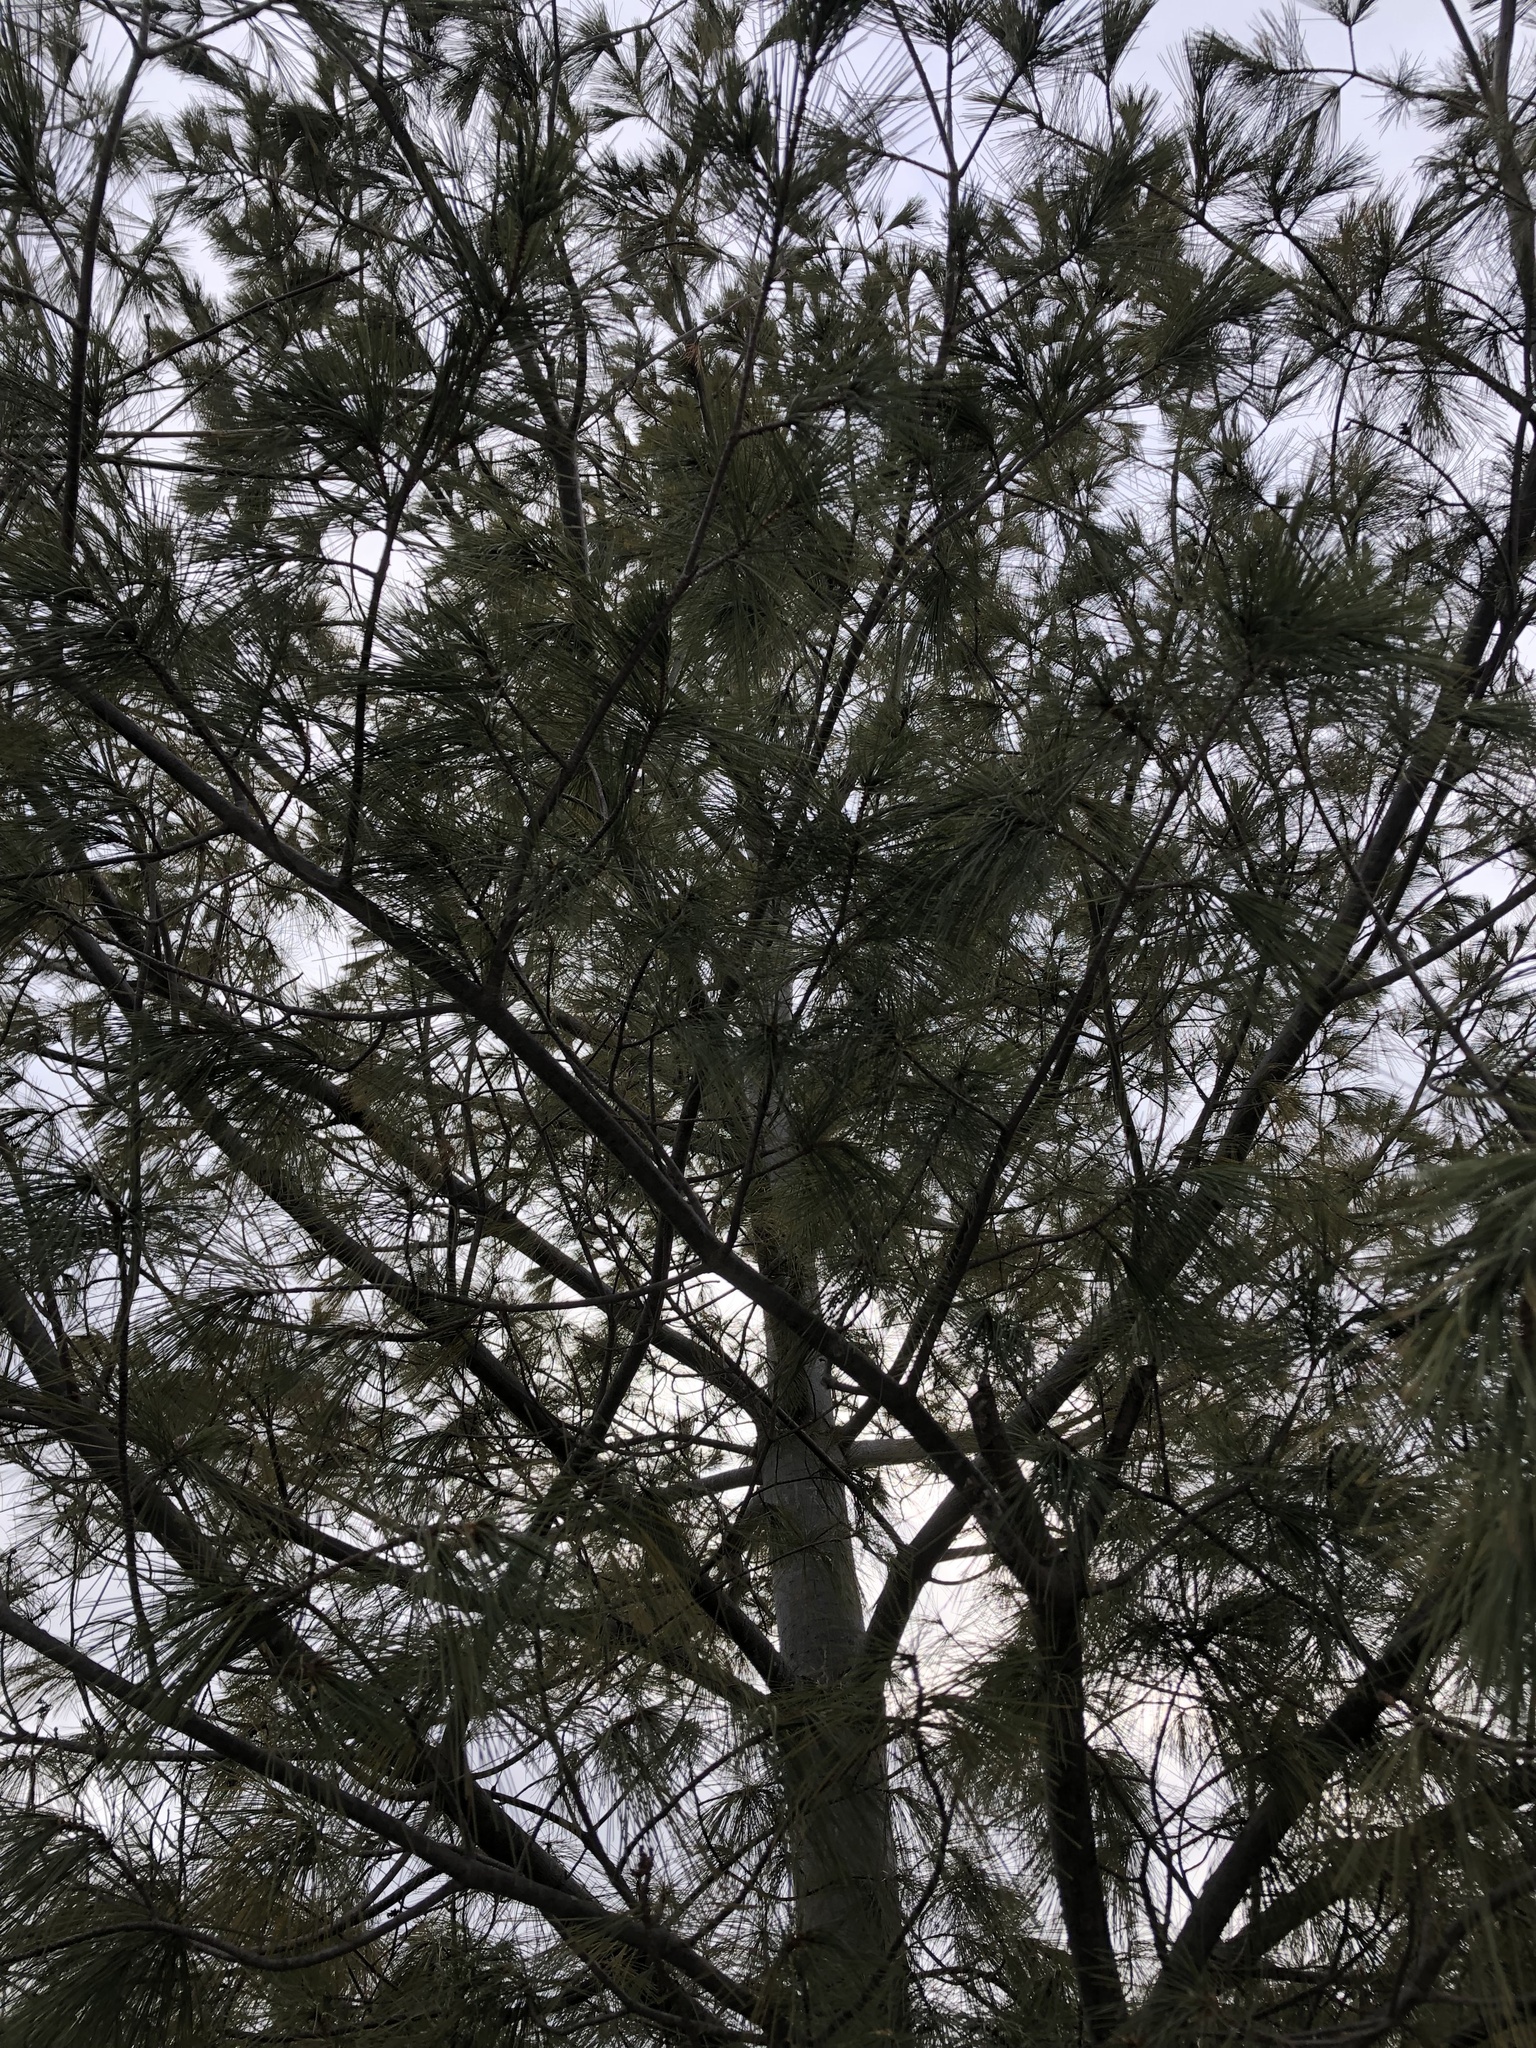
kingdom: Plantae
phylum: Tracheophyta
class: Pinopsida
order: Pinales
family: Pinaceae
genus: Pinus
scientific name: Pinus strobus
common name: Weymouth pine
